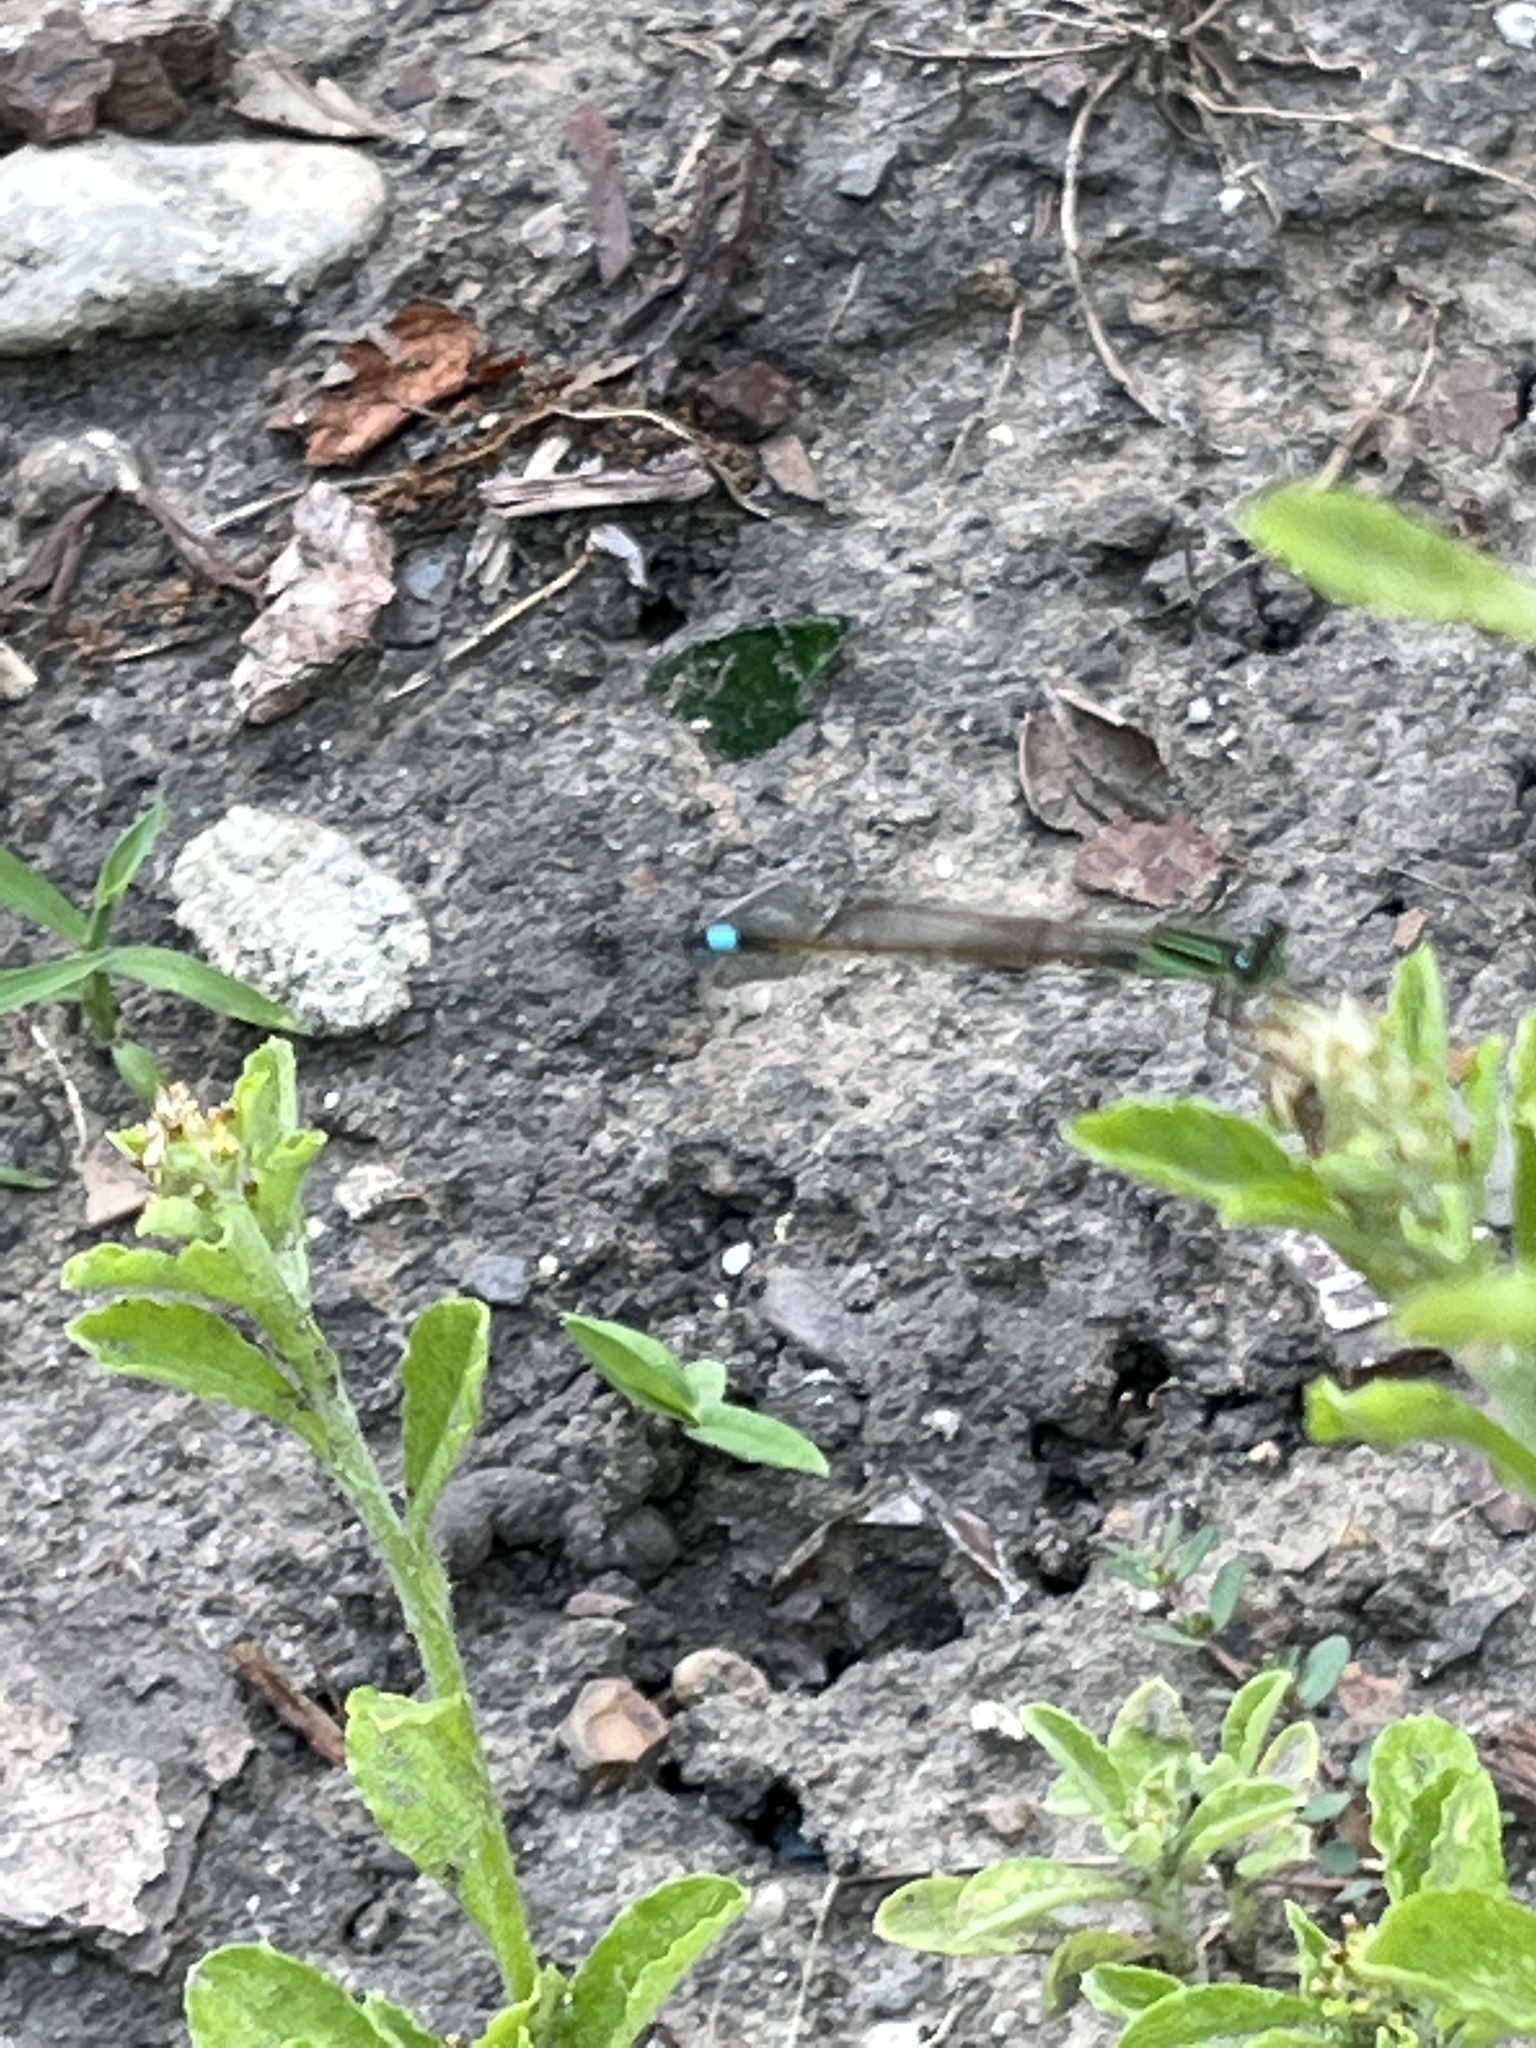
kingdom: Animalia
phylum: Arthropoda
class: Insecta
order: Odonata
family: Coenagrionidae
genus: Ischnura
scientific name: Ischnura ramburii
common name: Rambur's forktail
